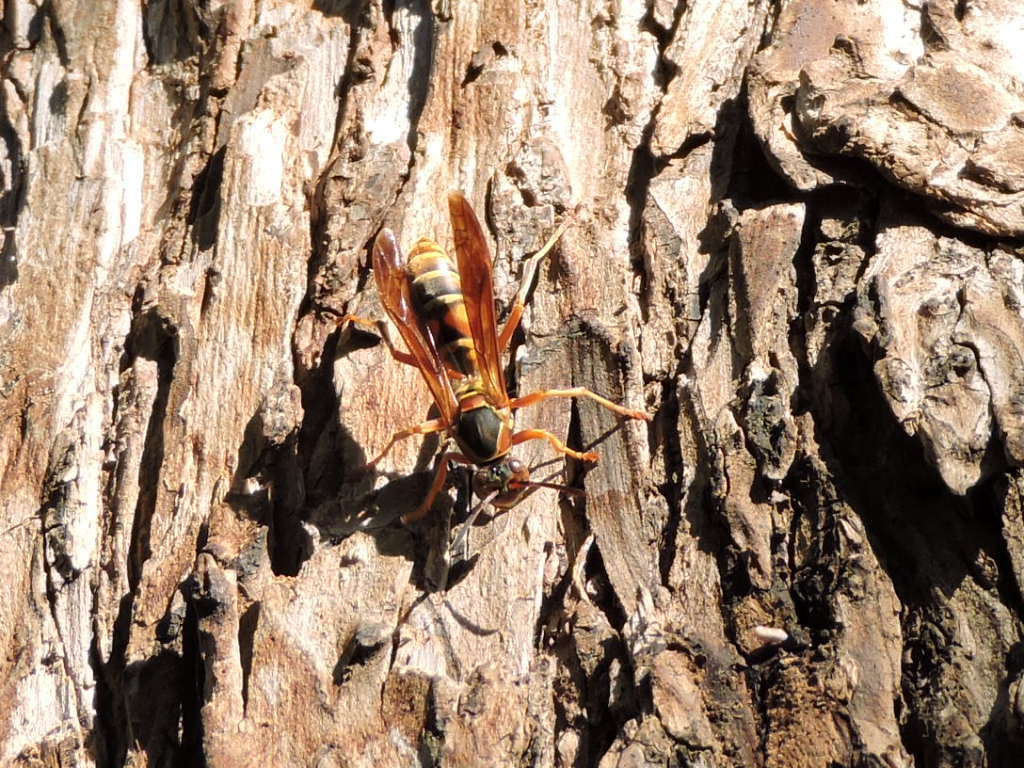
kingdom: Animalia
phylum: Arthropoda
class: Insecta
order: Hymenoptera
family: Eumenidae
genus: Polistes
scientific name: Polistes fuscatus
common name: Dark paper wasp
